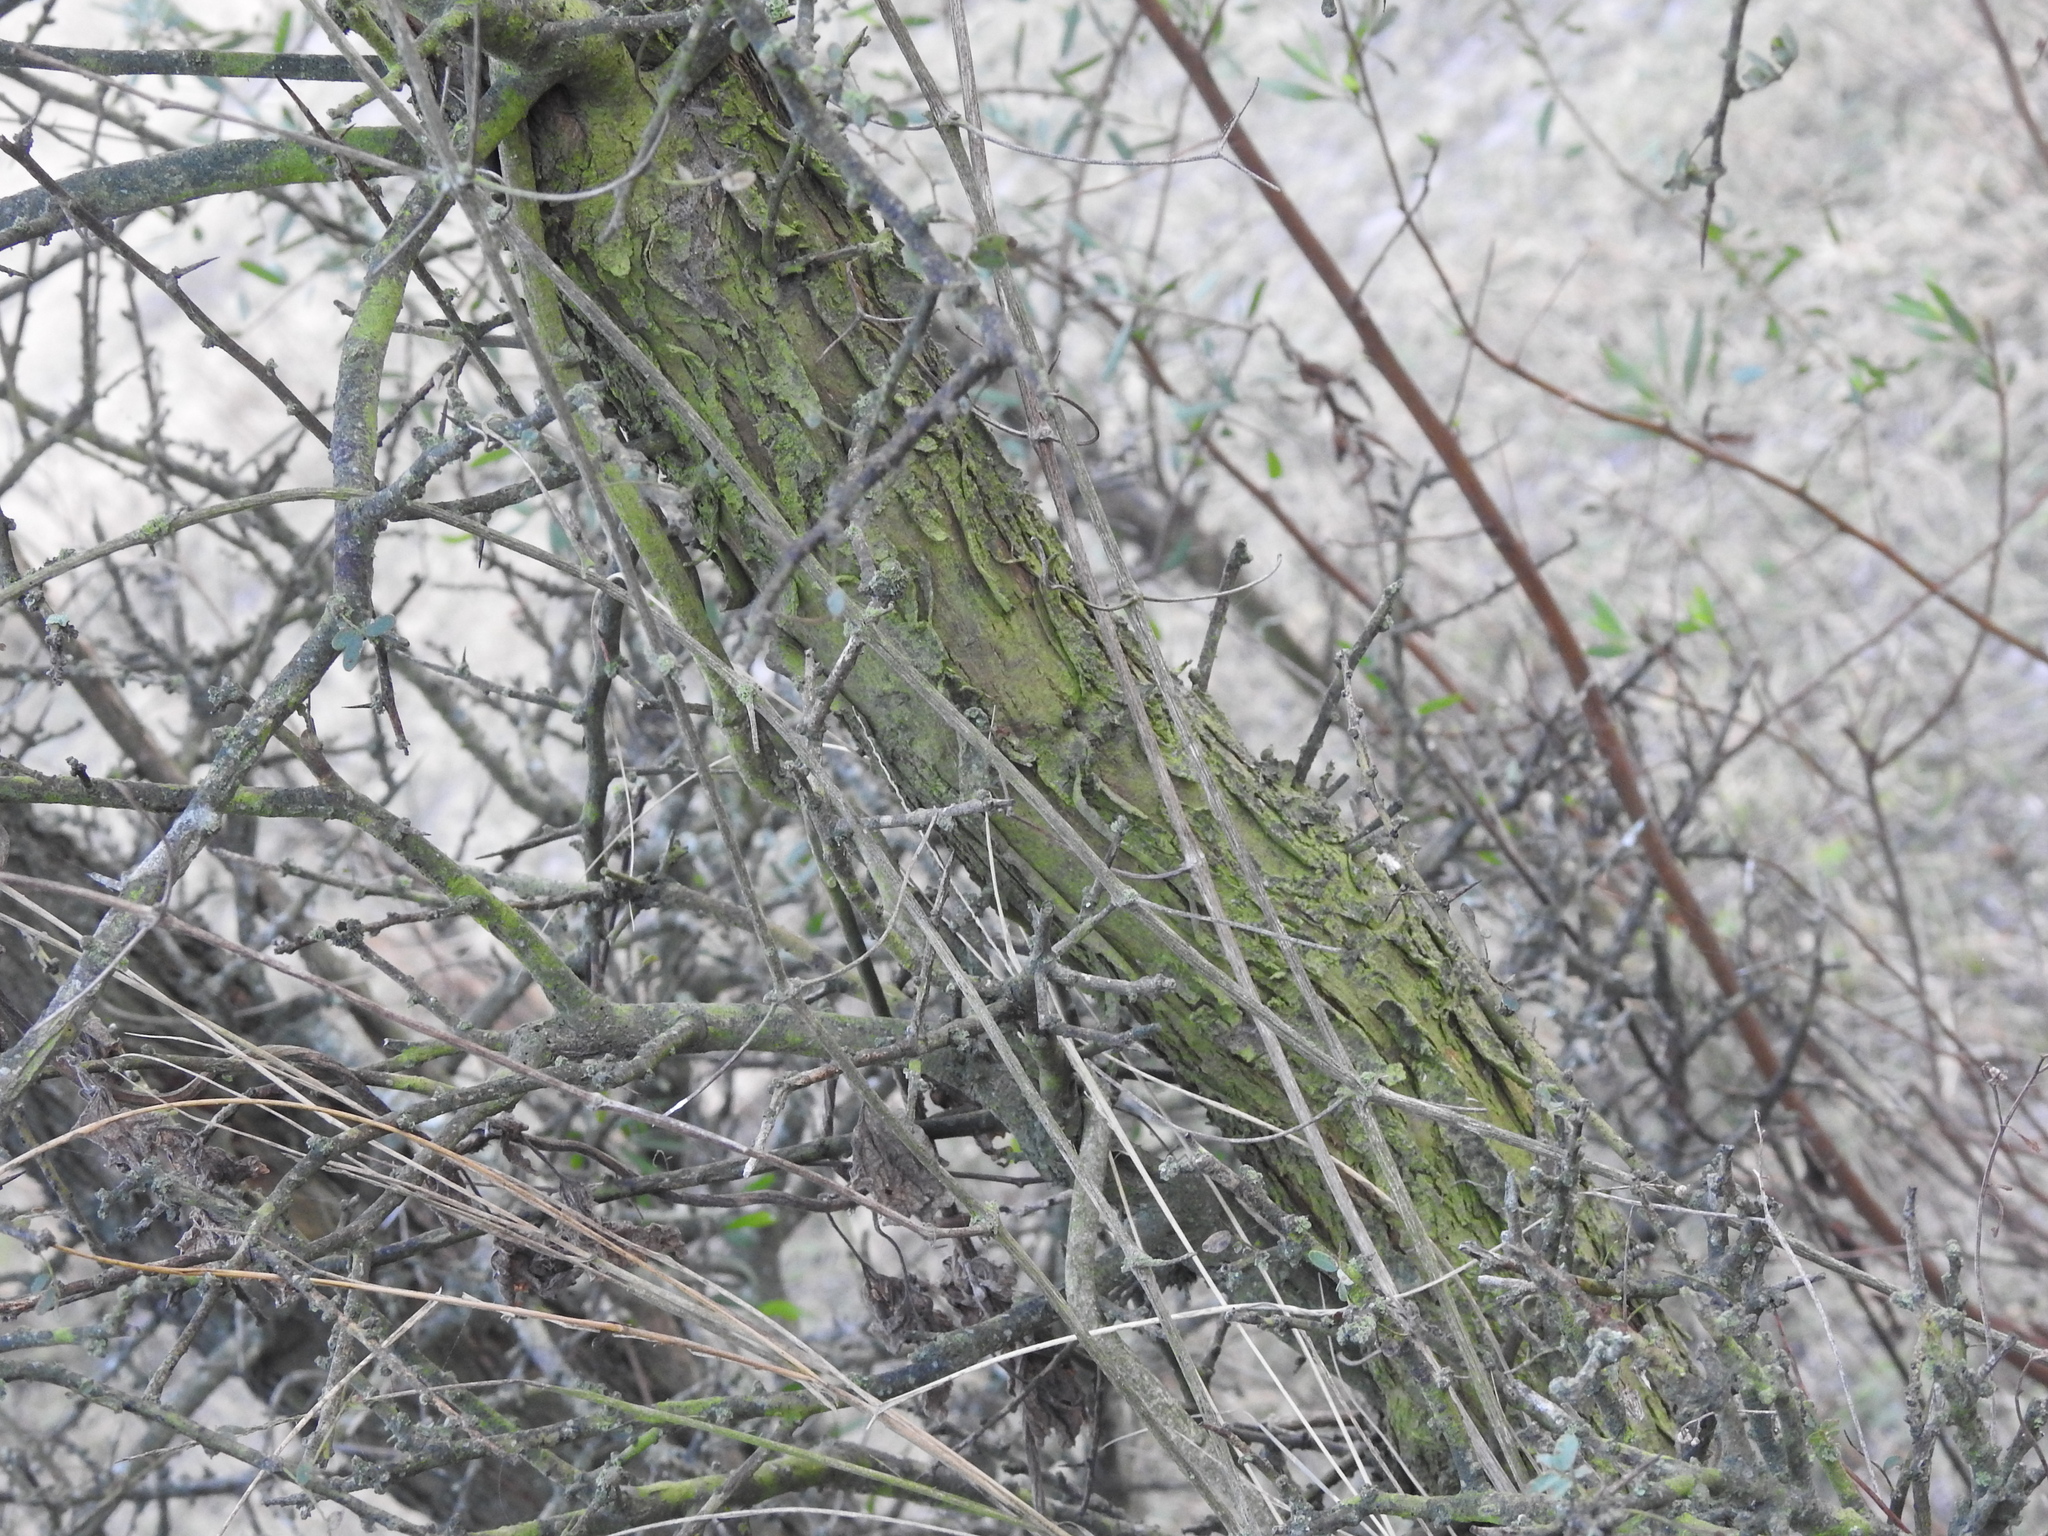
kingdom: Plantae
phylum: Tracheophyta
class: Magnoliopsida
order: Fabales
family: Fabaceae
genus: Geoffroea
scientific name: Geoffroea decorticans
